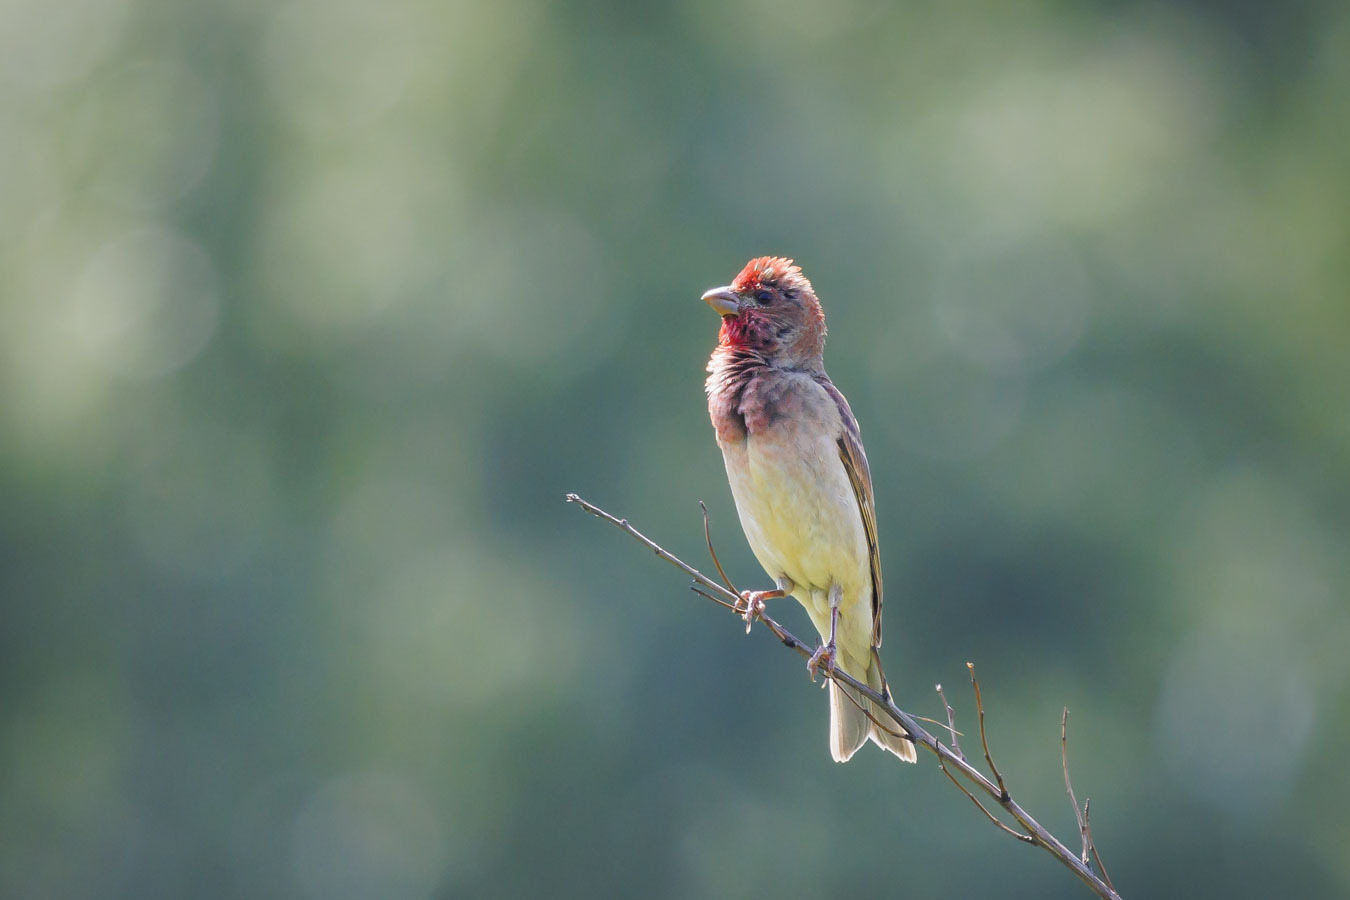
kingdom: Animalia
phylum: Chordata
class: Aves
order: Passeriformes
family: Fringillidae
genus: Carpodacus
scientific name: Carpodacus erythrinus
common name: Common rosefinch
